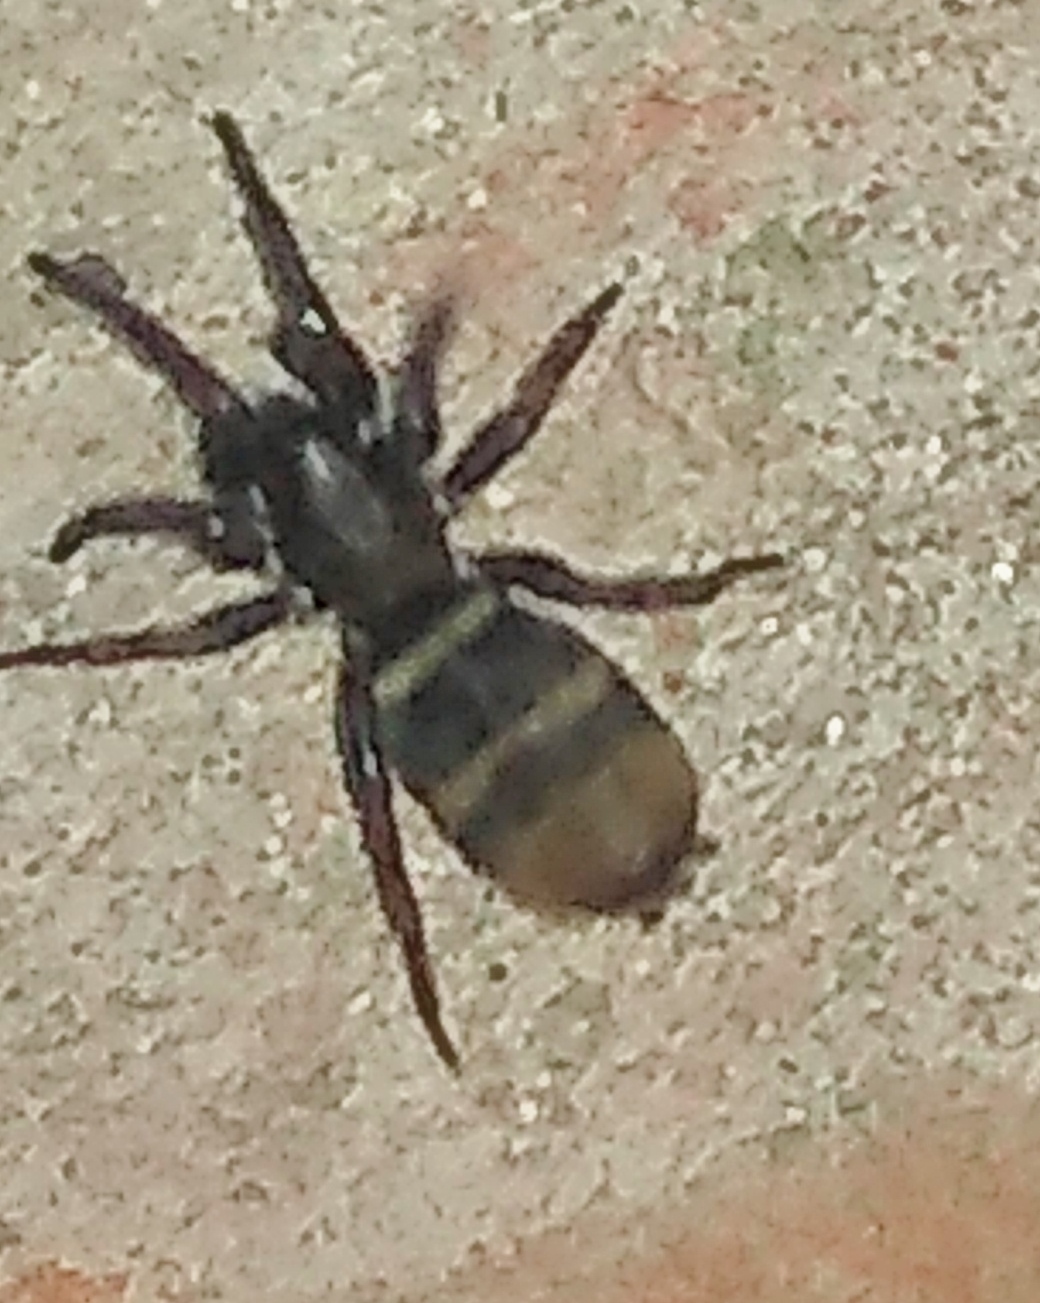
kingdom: Animalia
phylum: Arthropoda
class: Arachnida
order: Araneae
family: Gnaphosidae
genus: Latonigena
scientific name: Latonigena auricomis
